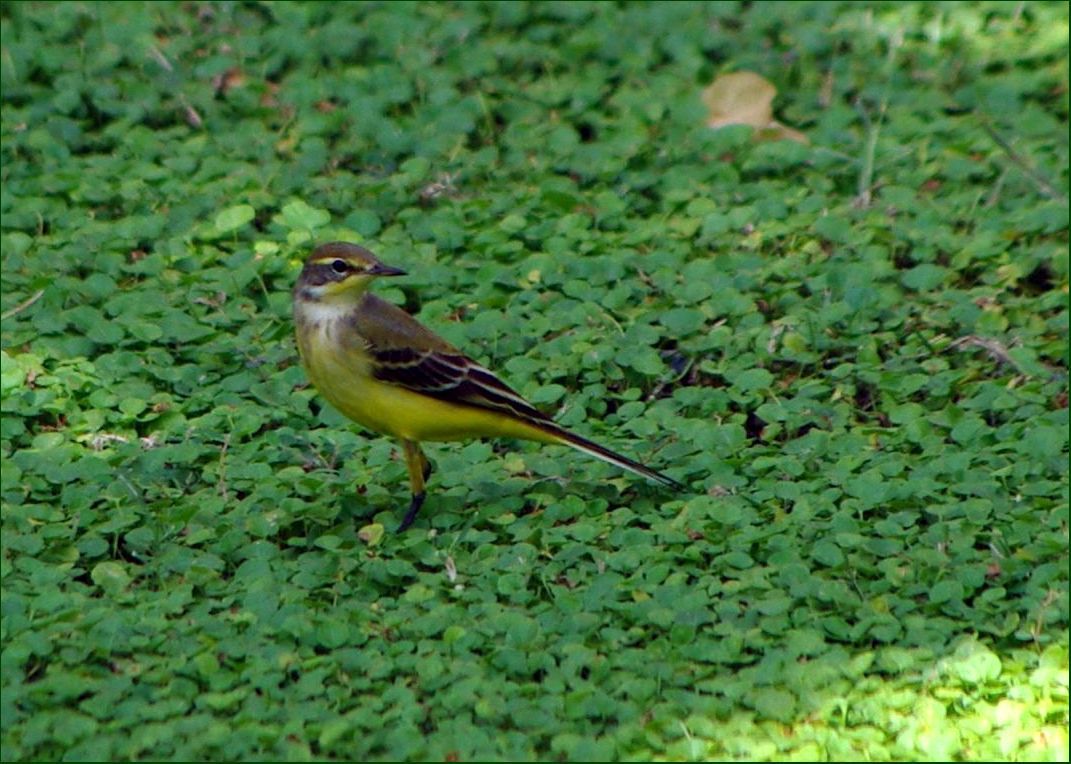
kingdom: Animalia
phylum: Chordata
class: Aves
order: Passeriformes
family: Motacillidae
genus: Motacilla
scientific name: Motacilla flava
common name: Western yellow wagtail
